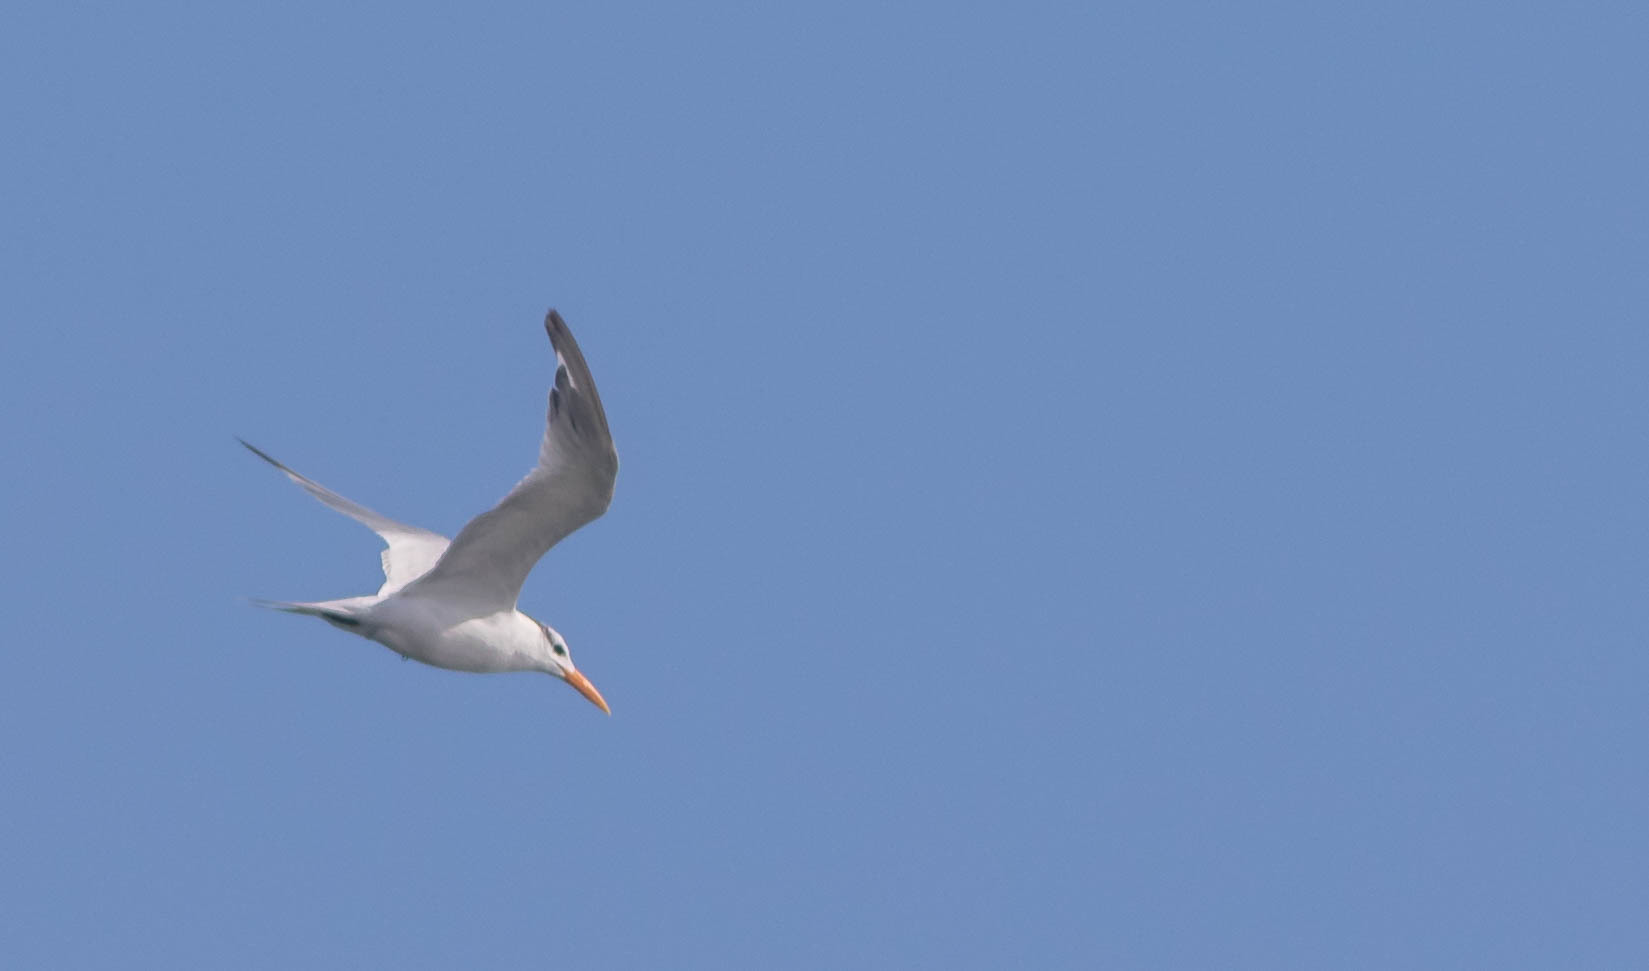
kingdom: Animalia
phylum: Chordata
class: Aves
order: Charadriiformes
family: Laridae
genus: Thalasseus
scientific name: Thalasseus maximus
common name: Royal tern
